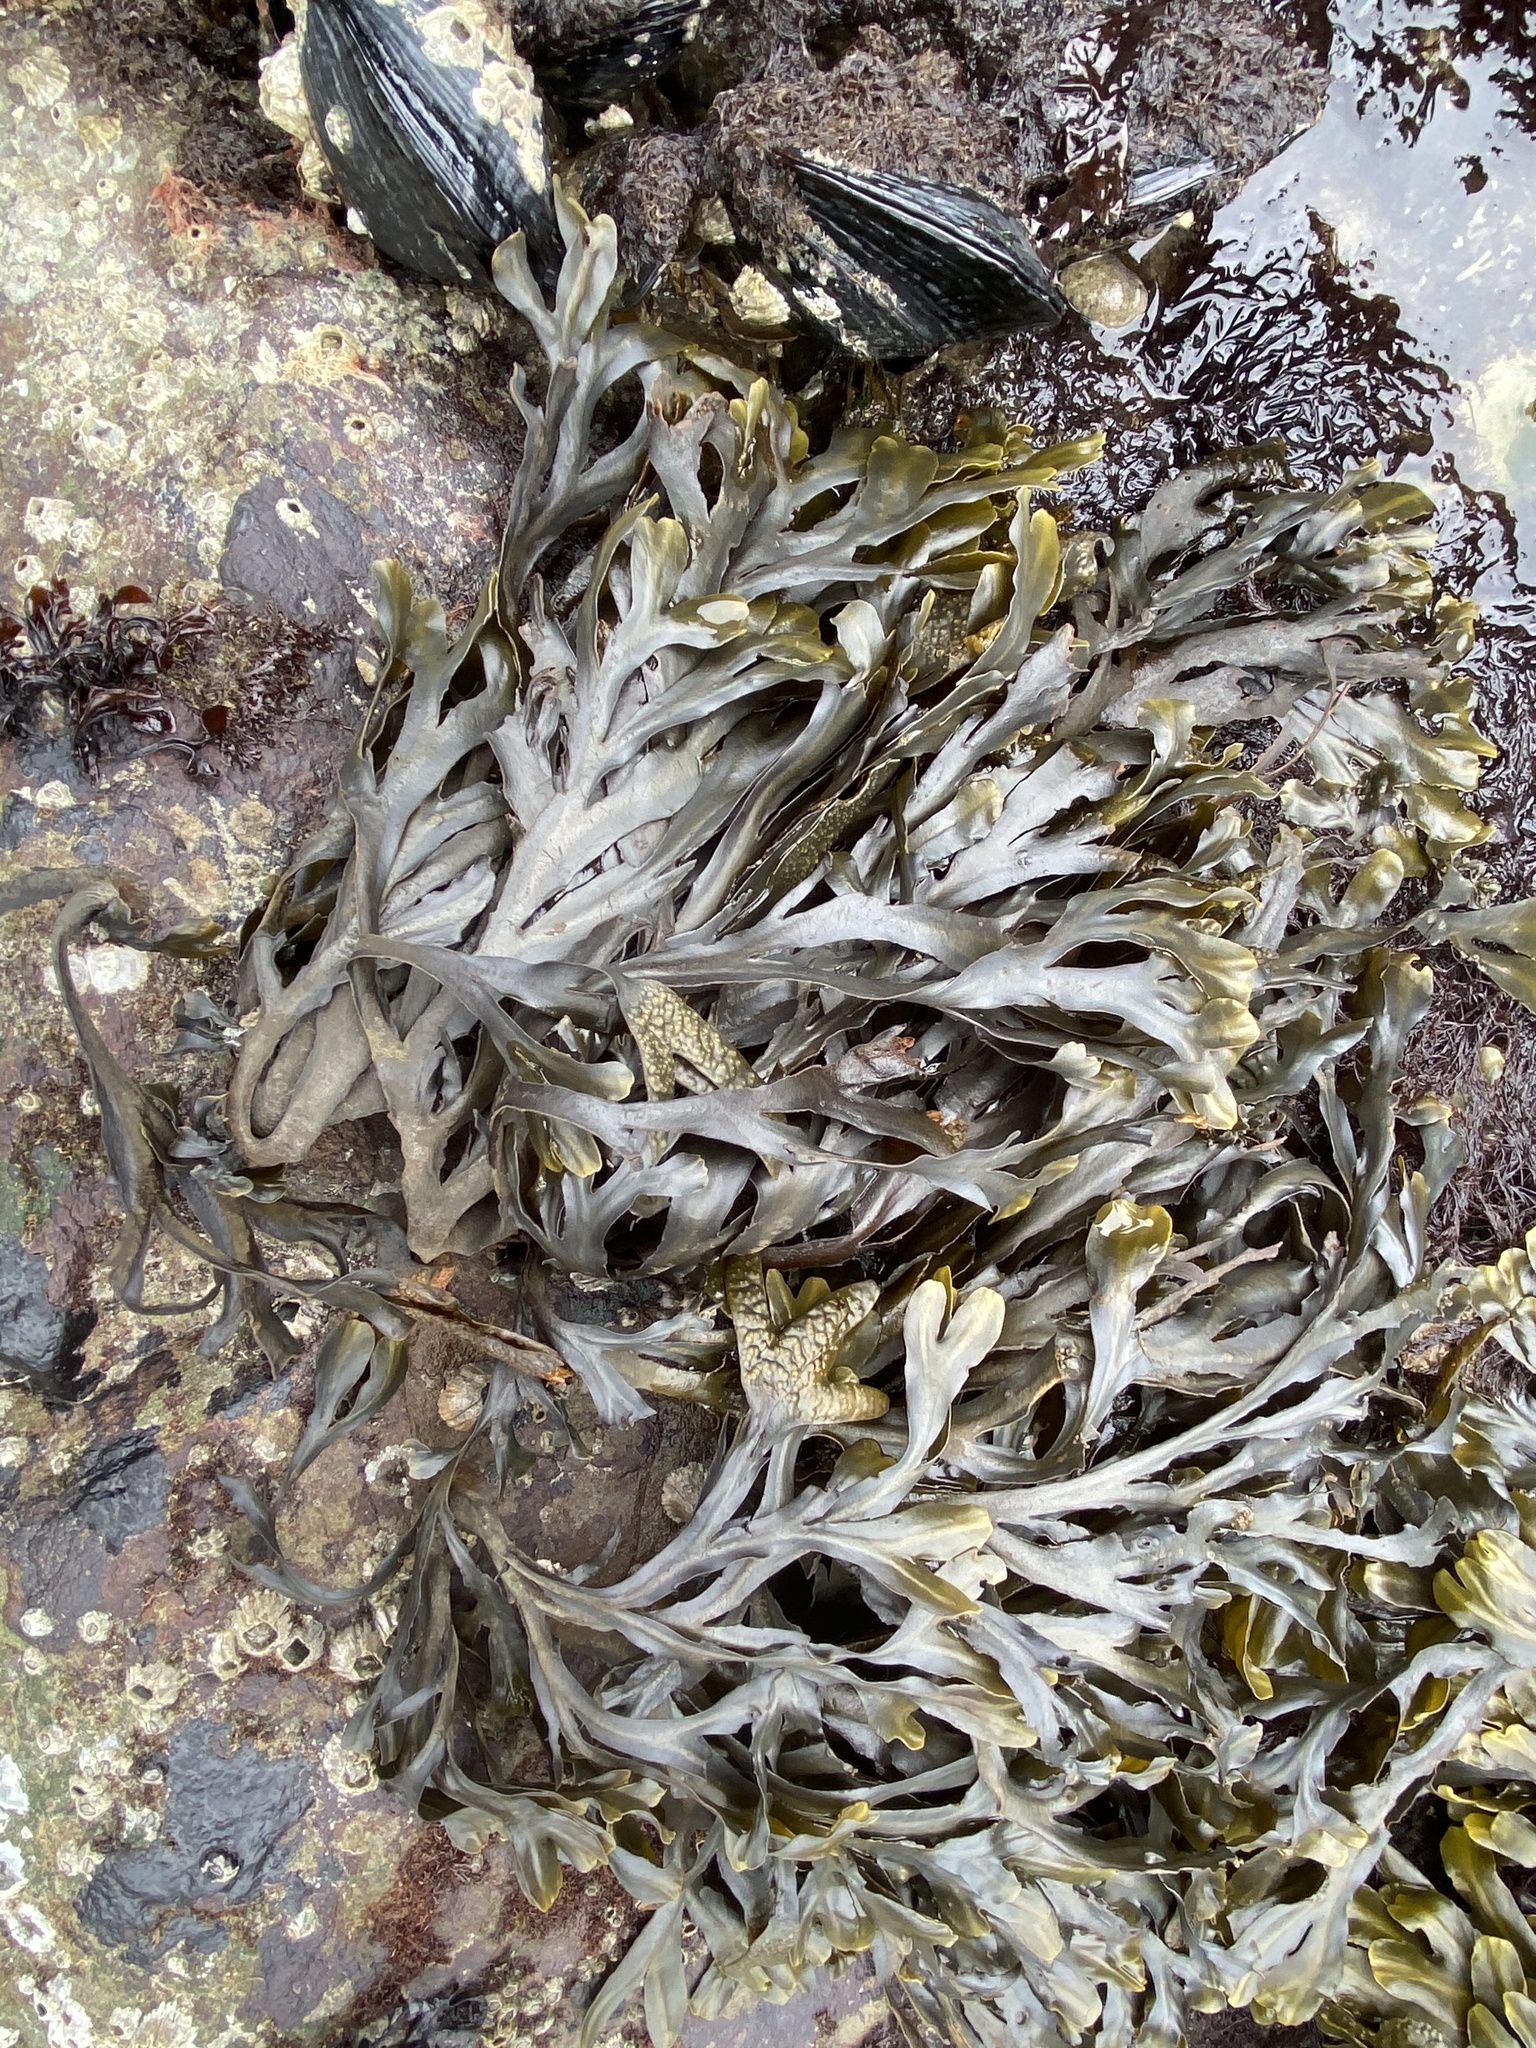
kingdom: Chromista
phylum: Ochrophyta
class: Phaeophyceae
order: Fucales
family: Fucaceae
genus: Fucus
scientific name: Fucus distichus
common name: Rockweed
